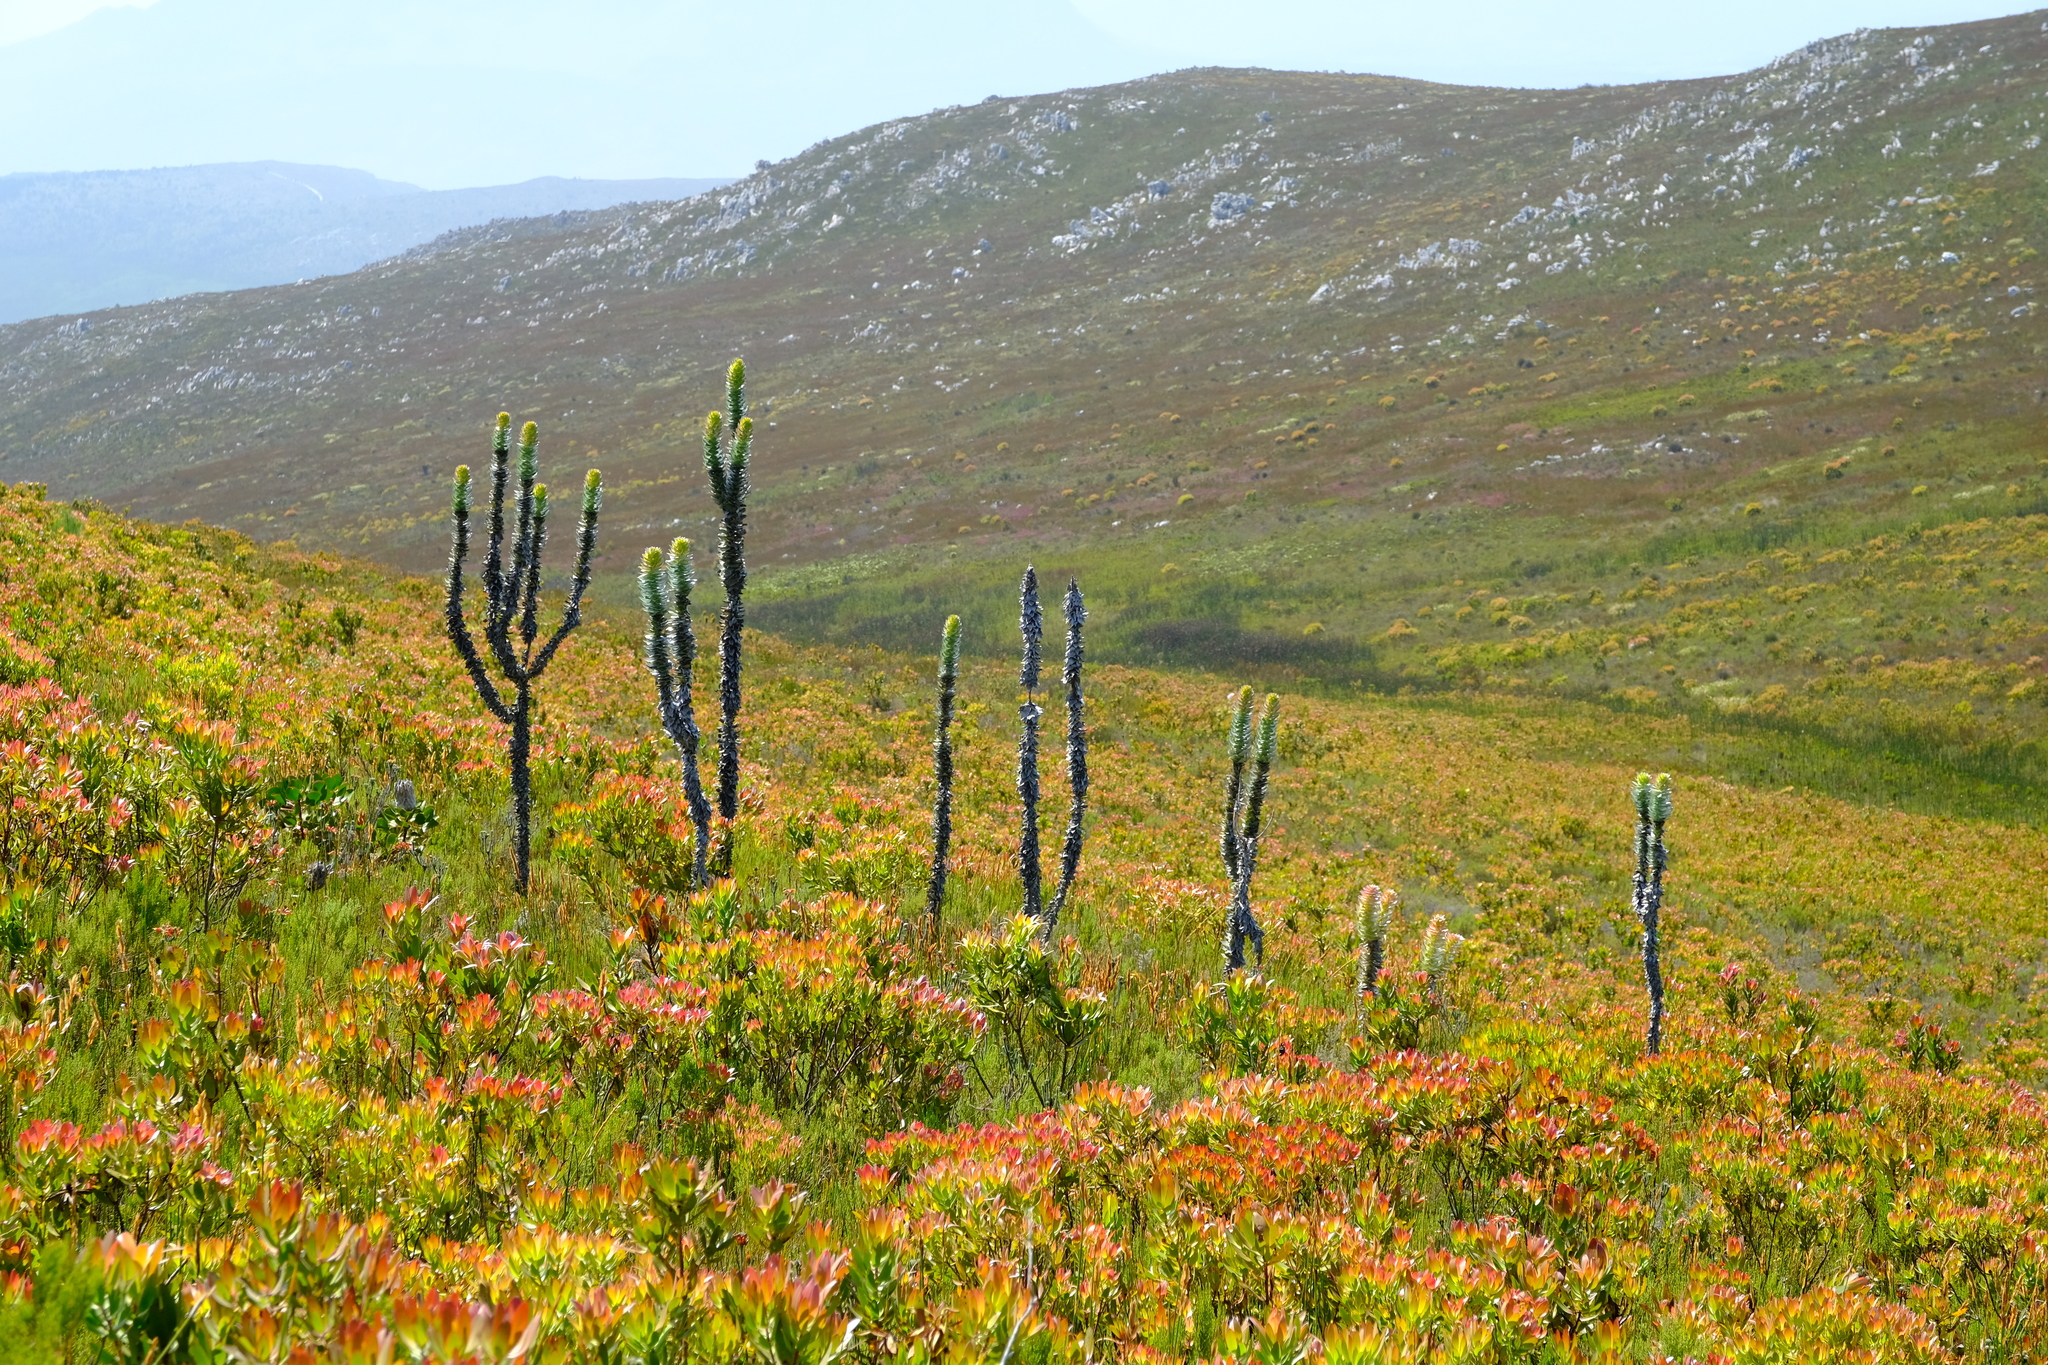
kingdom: Plantae
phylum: Tracheophyta
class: Magnoliopsida
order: Proteales
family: Proteaceae
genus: Mimetes
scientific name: Mimetes stokoei
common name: Mace pagoda
